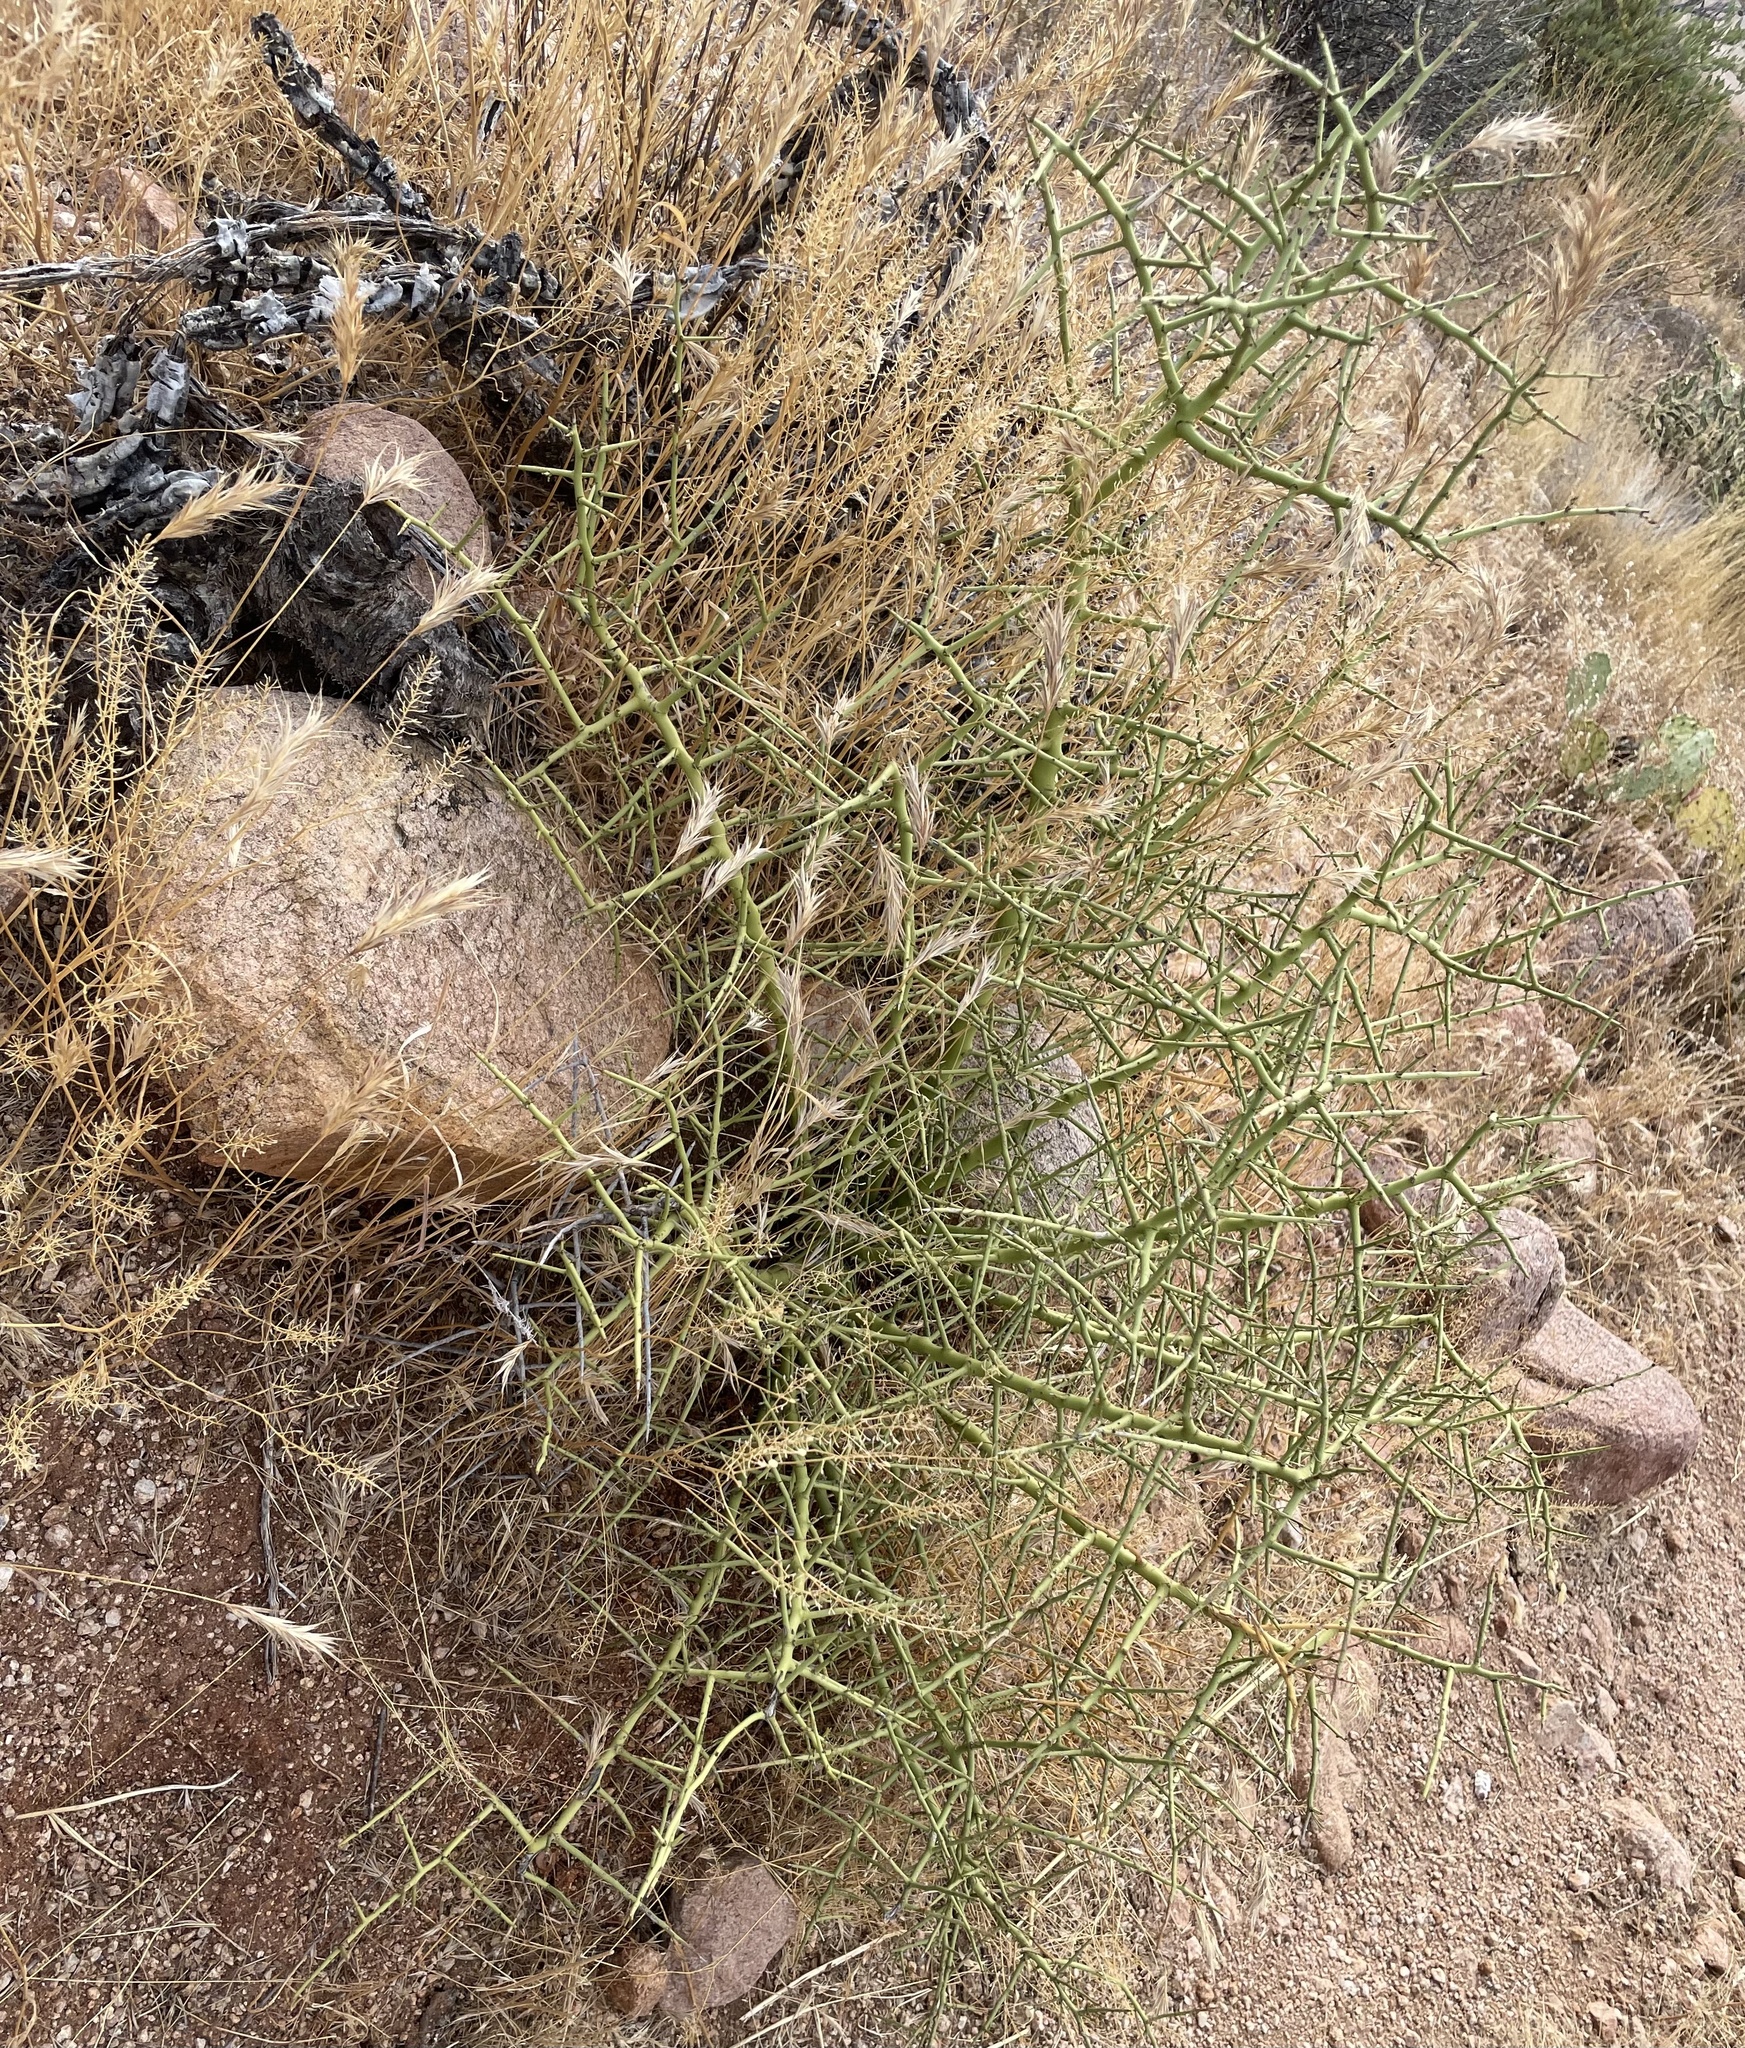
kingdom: Plantae
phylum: Tracheophyta
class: Magnoliopsida
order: Fabales
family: Fabaceae
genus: Parkinsonia
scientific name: Parkinsonia microphylla
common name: Yellow paloverde
